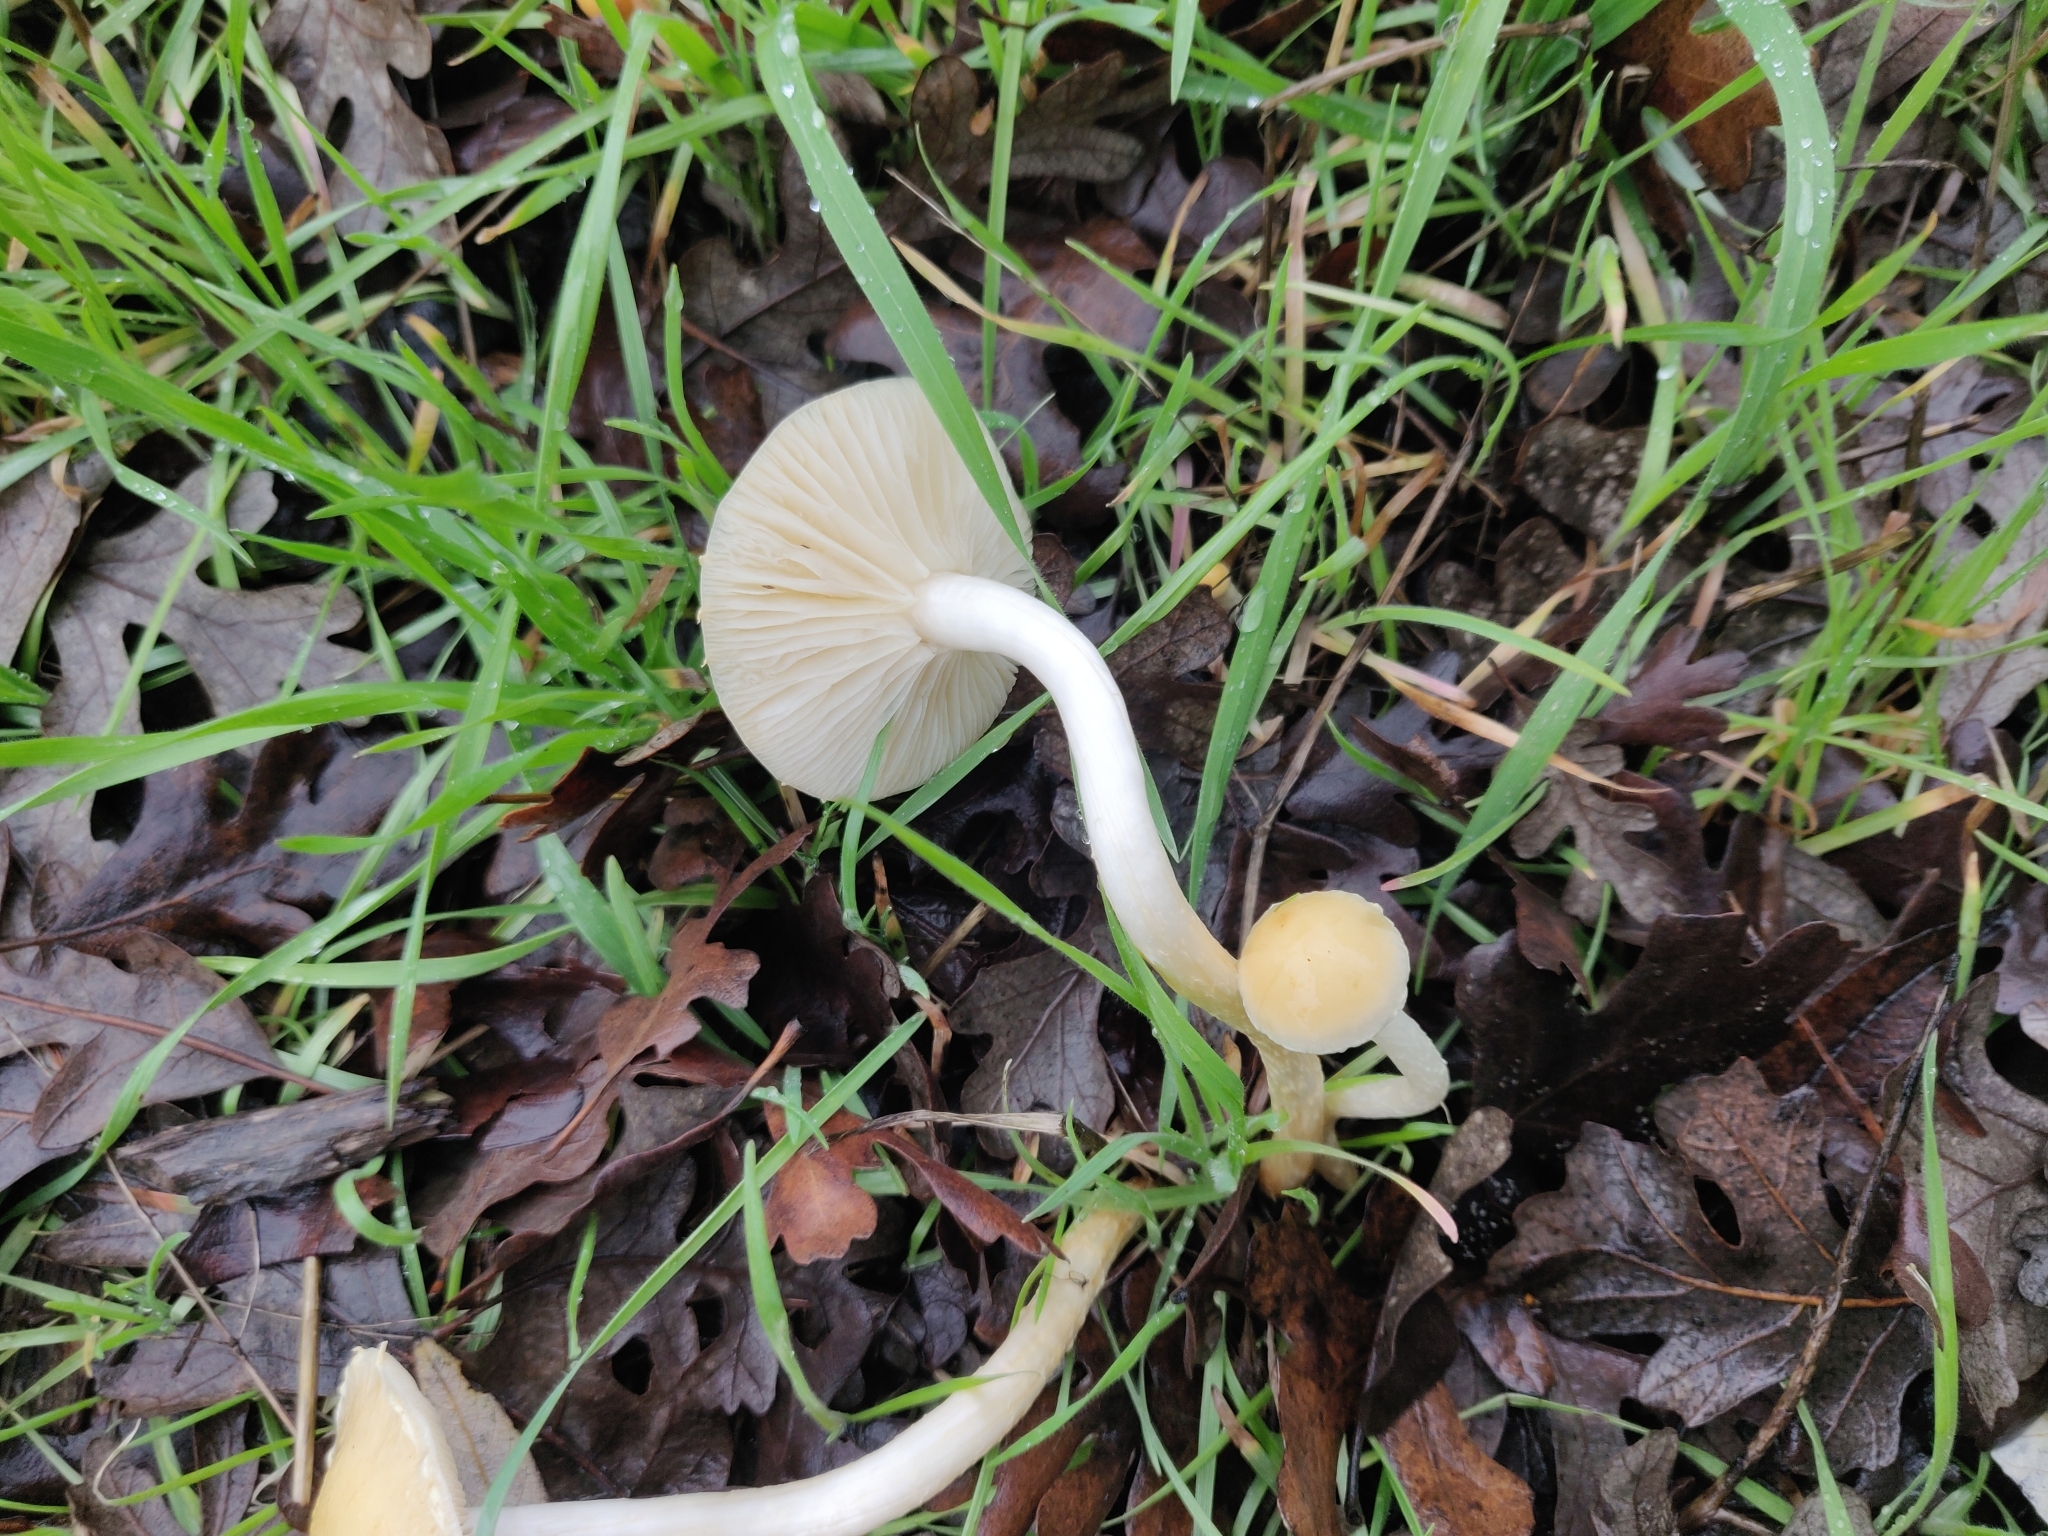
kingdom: Fungi
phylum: Basidiomycota
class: Agaricomycetes
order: Agaricales
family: Strophariaceae
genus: Leratiomyces
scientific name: Leratiomyces percevalii
